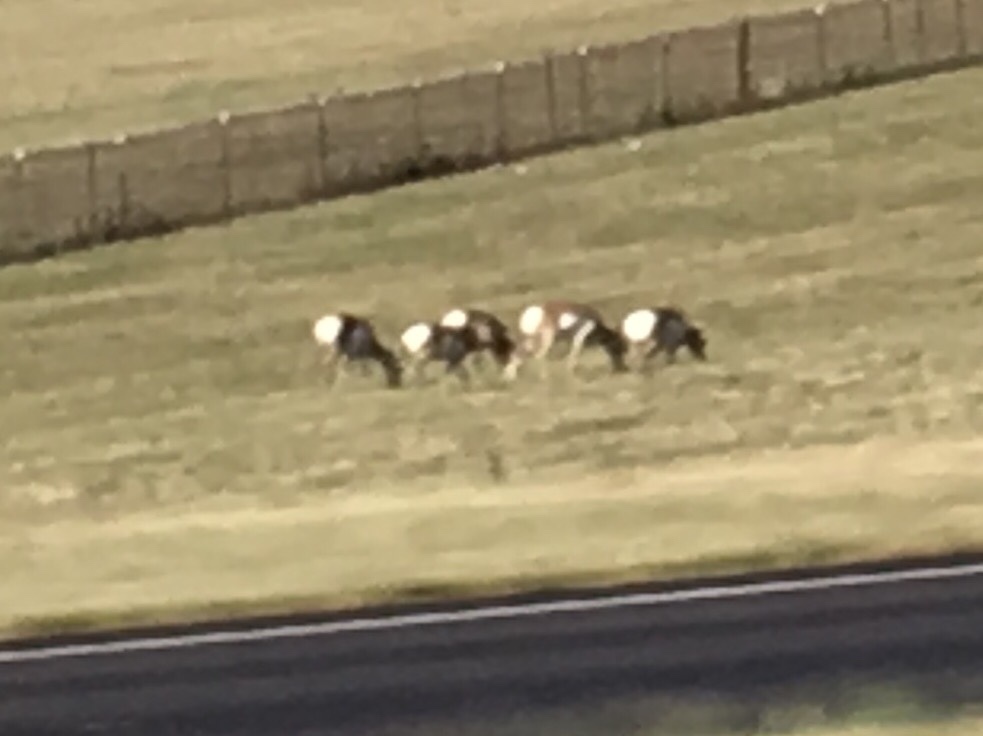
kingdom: Animalia
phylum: Chordata
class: Mammalia
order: Artiodactyla
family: Antilocapridae
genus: Antilocapra
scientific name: Antilocapra americana
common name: Pronghorn
